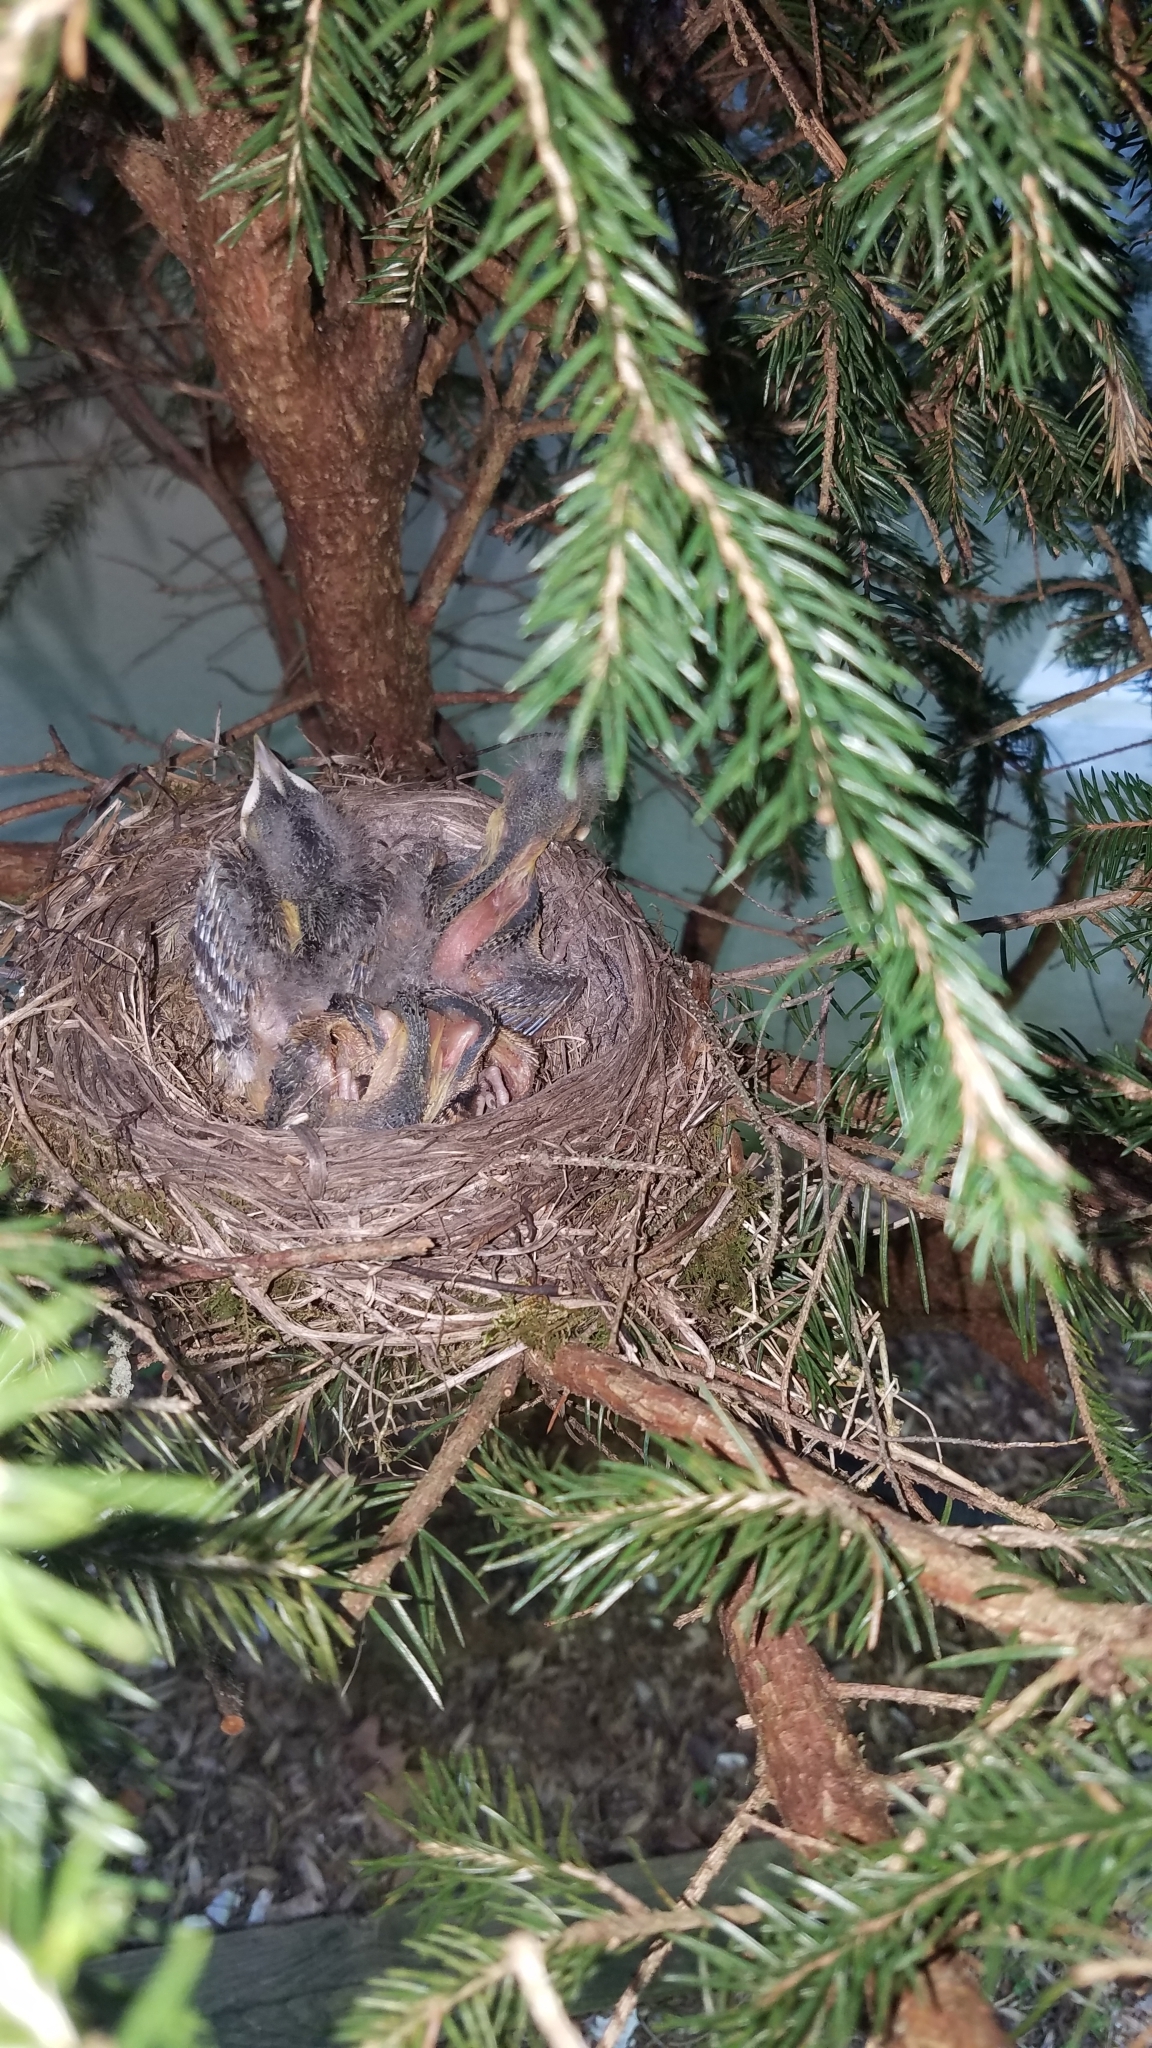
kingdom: Animalia
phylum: Chordata
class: Aves
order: Passeriformes
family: Turdidae
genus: Turdus
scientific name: Turdus migratorius
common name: American robin
